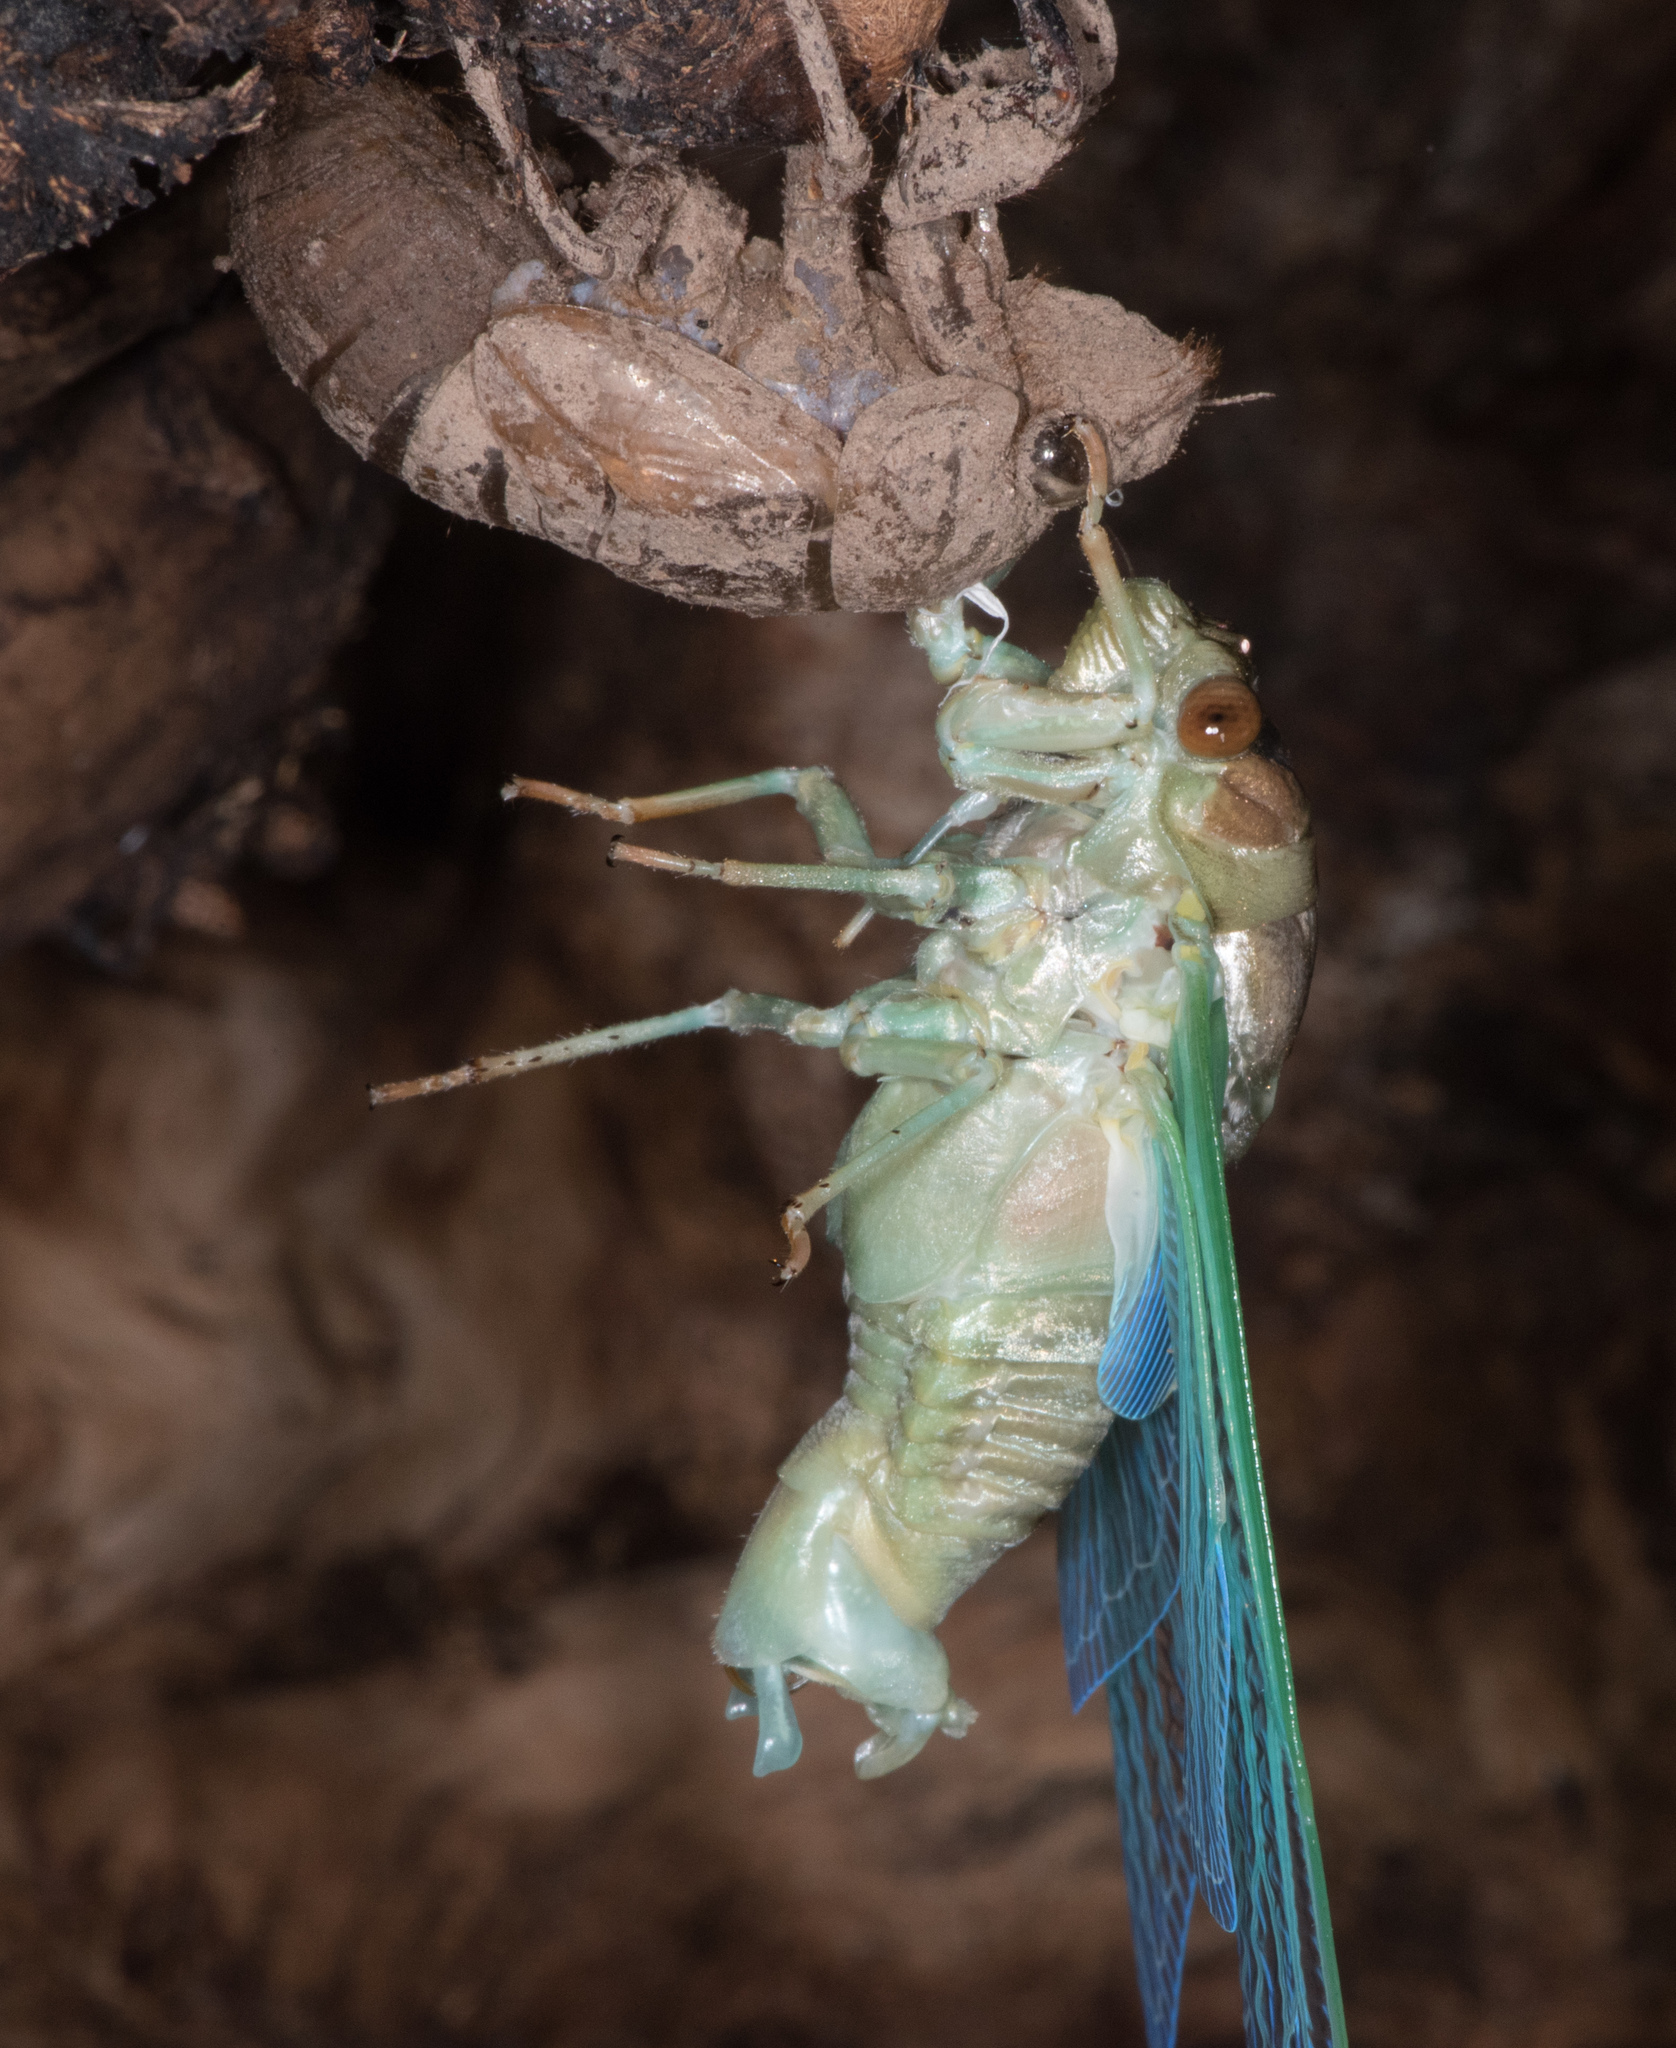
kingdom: Animalia
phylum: Arthropoda
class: Insecta
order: Hemiptera
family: Cicadidae
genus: Megatibicen
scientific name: Megatibicen cultriformis
